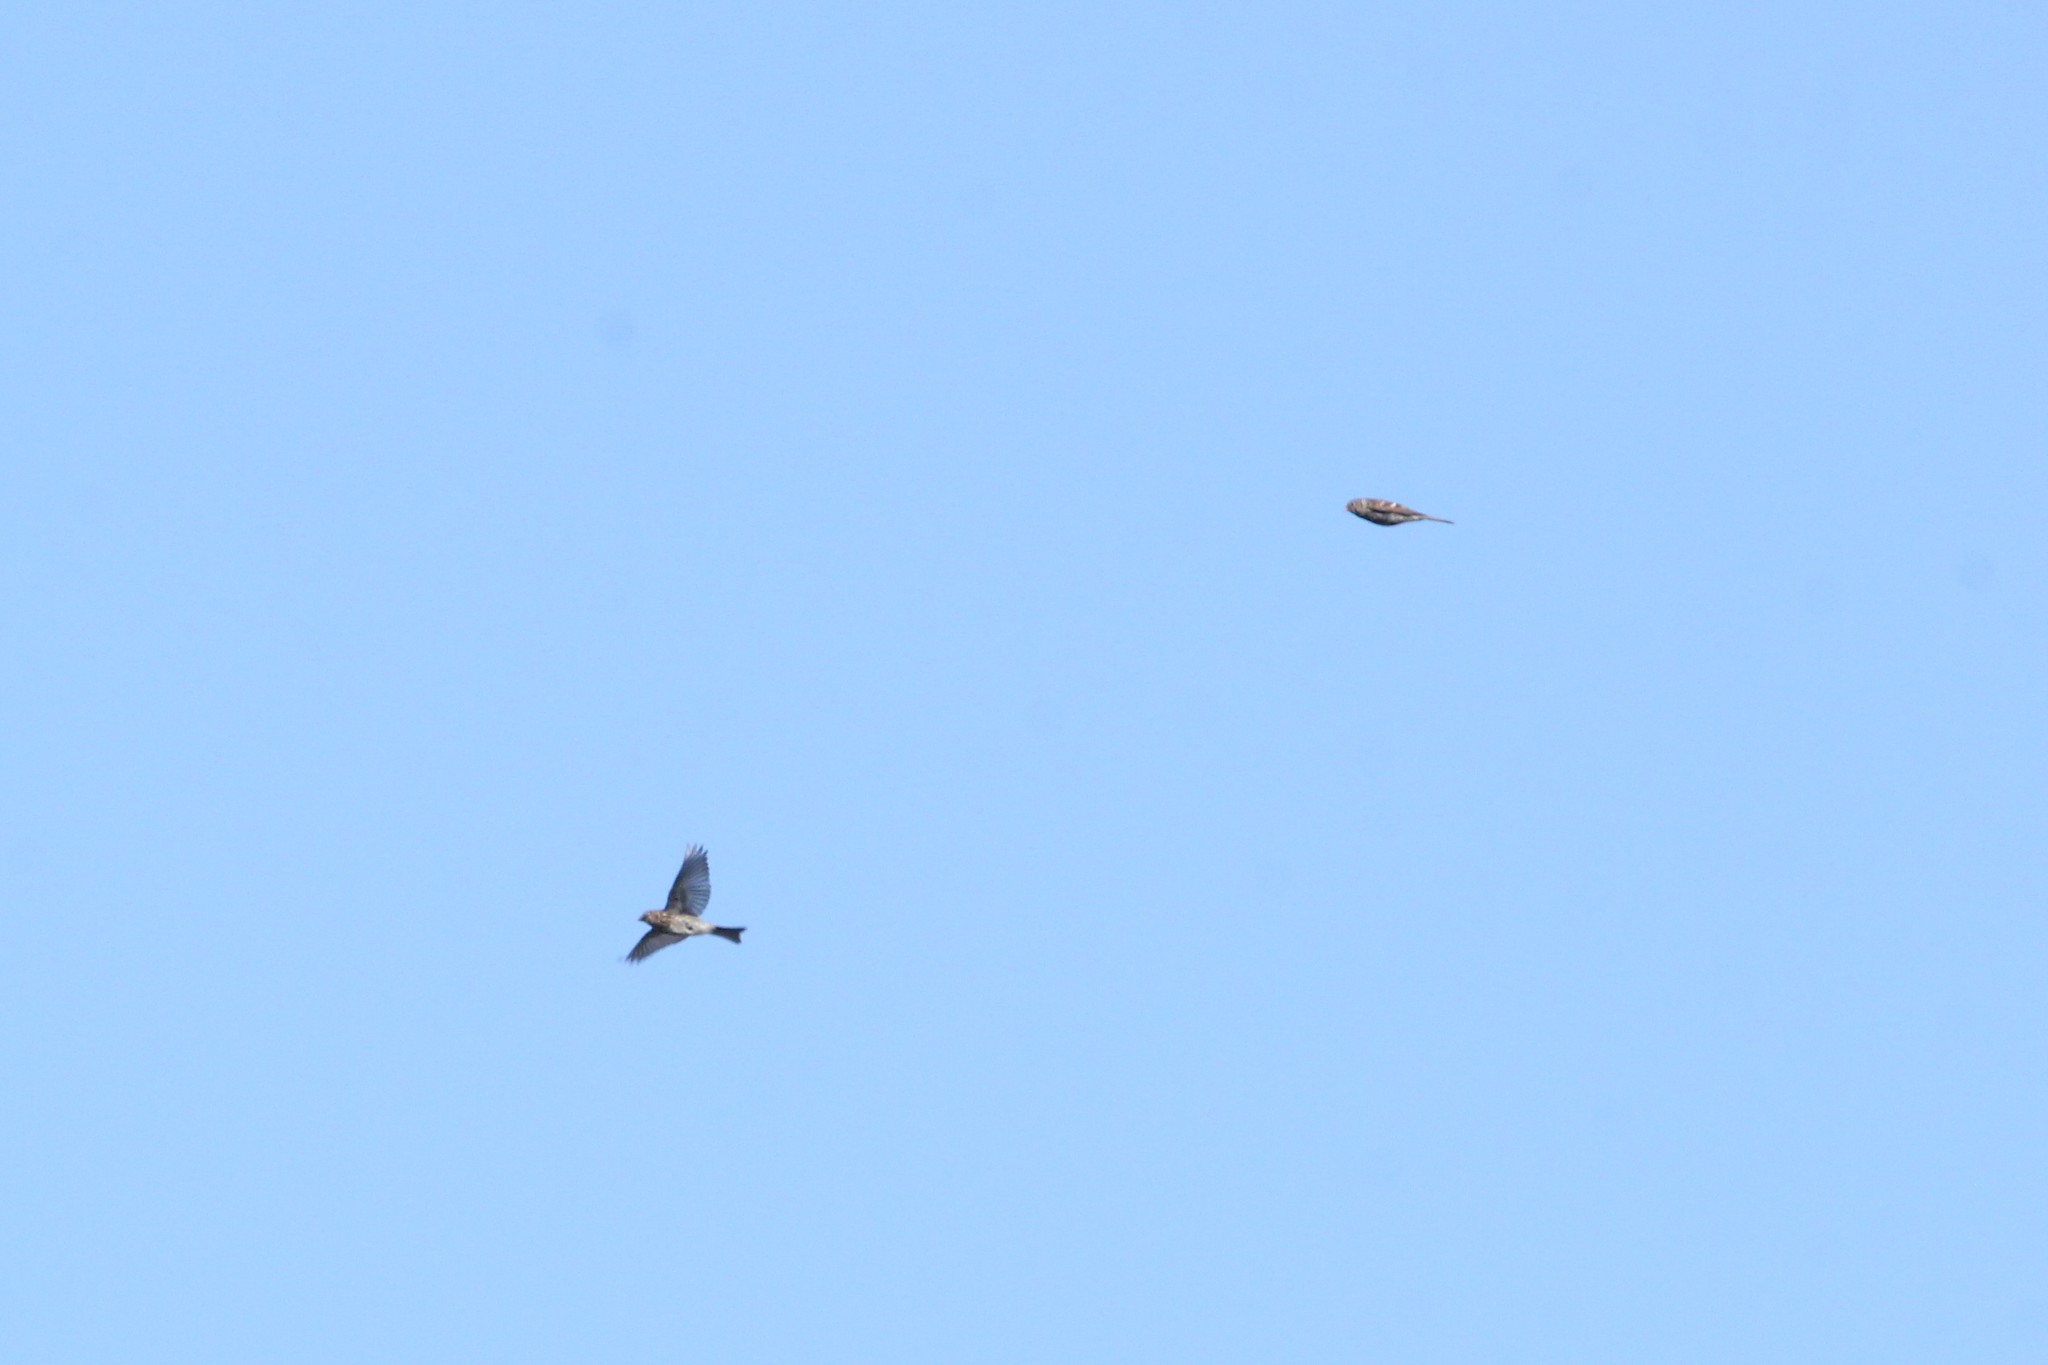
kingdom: Animalia
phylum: Chordata
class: Aves
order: Passeriformes
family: Fringillidae
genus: Acanthis
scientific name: Acanthis flammea
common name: Common redpoll
